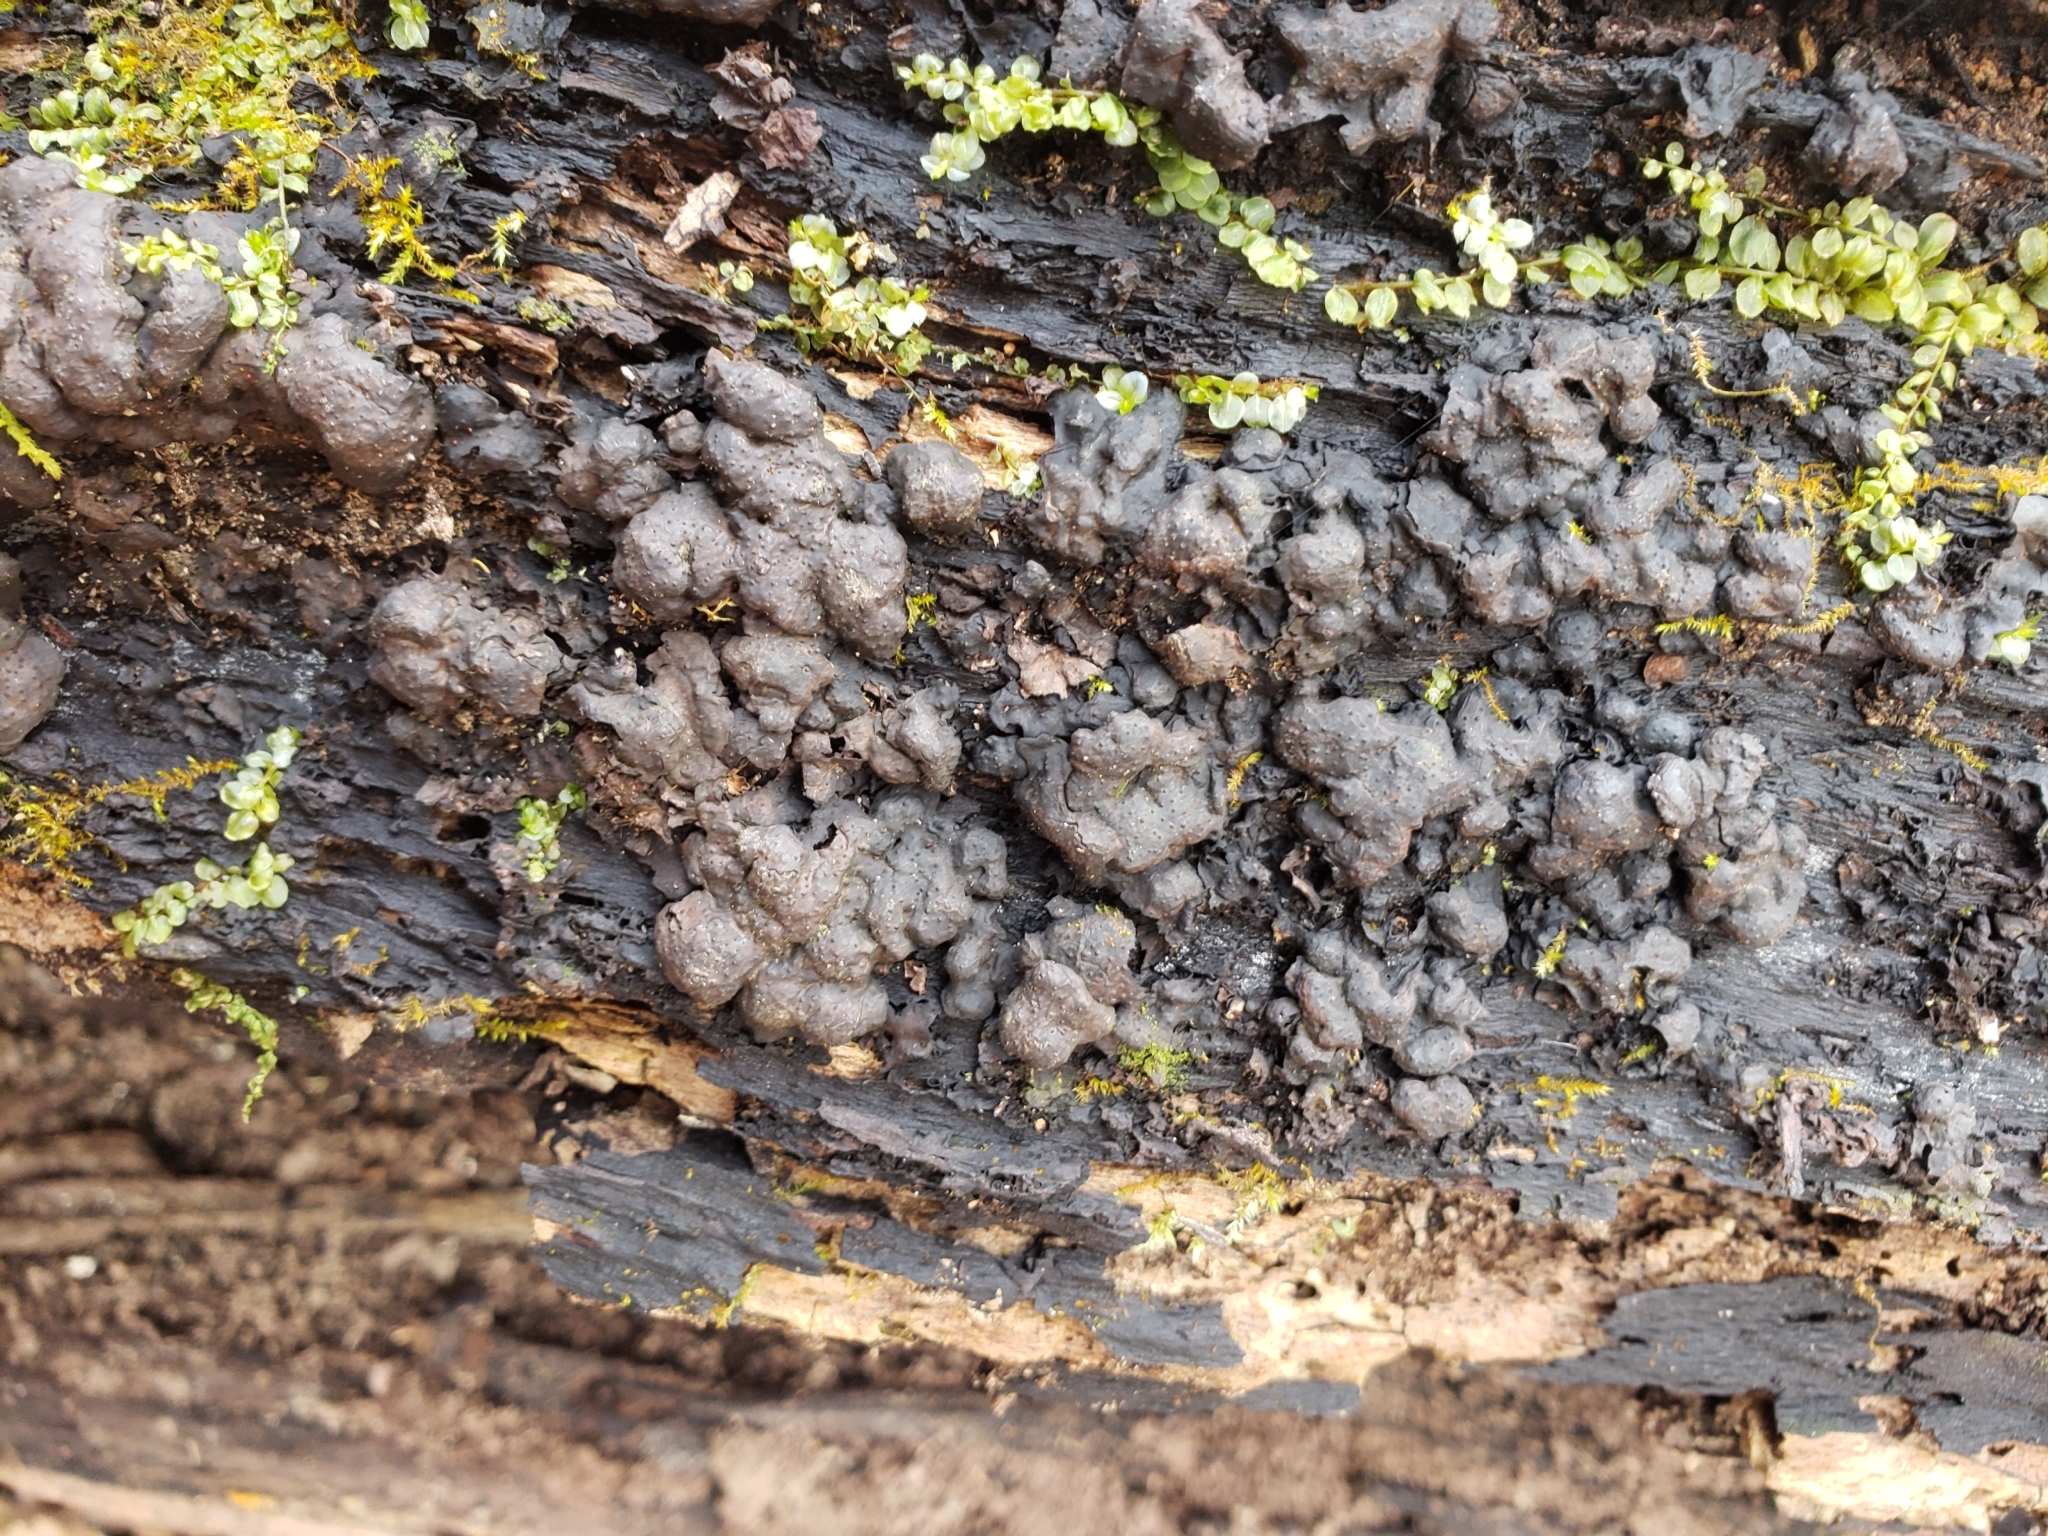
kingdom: Fungi
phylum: Ascomycota
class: Sordariomycetes
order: Xylariales
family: Xylariaceae
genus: Kretzschmaria
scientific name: Kretzschmaria deusta
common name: Brittle cinder
